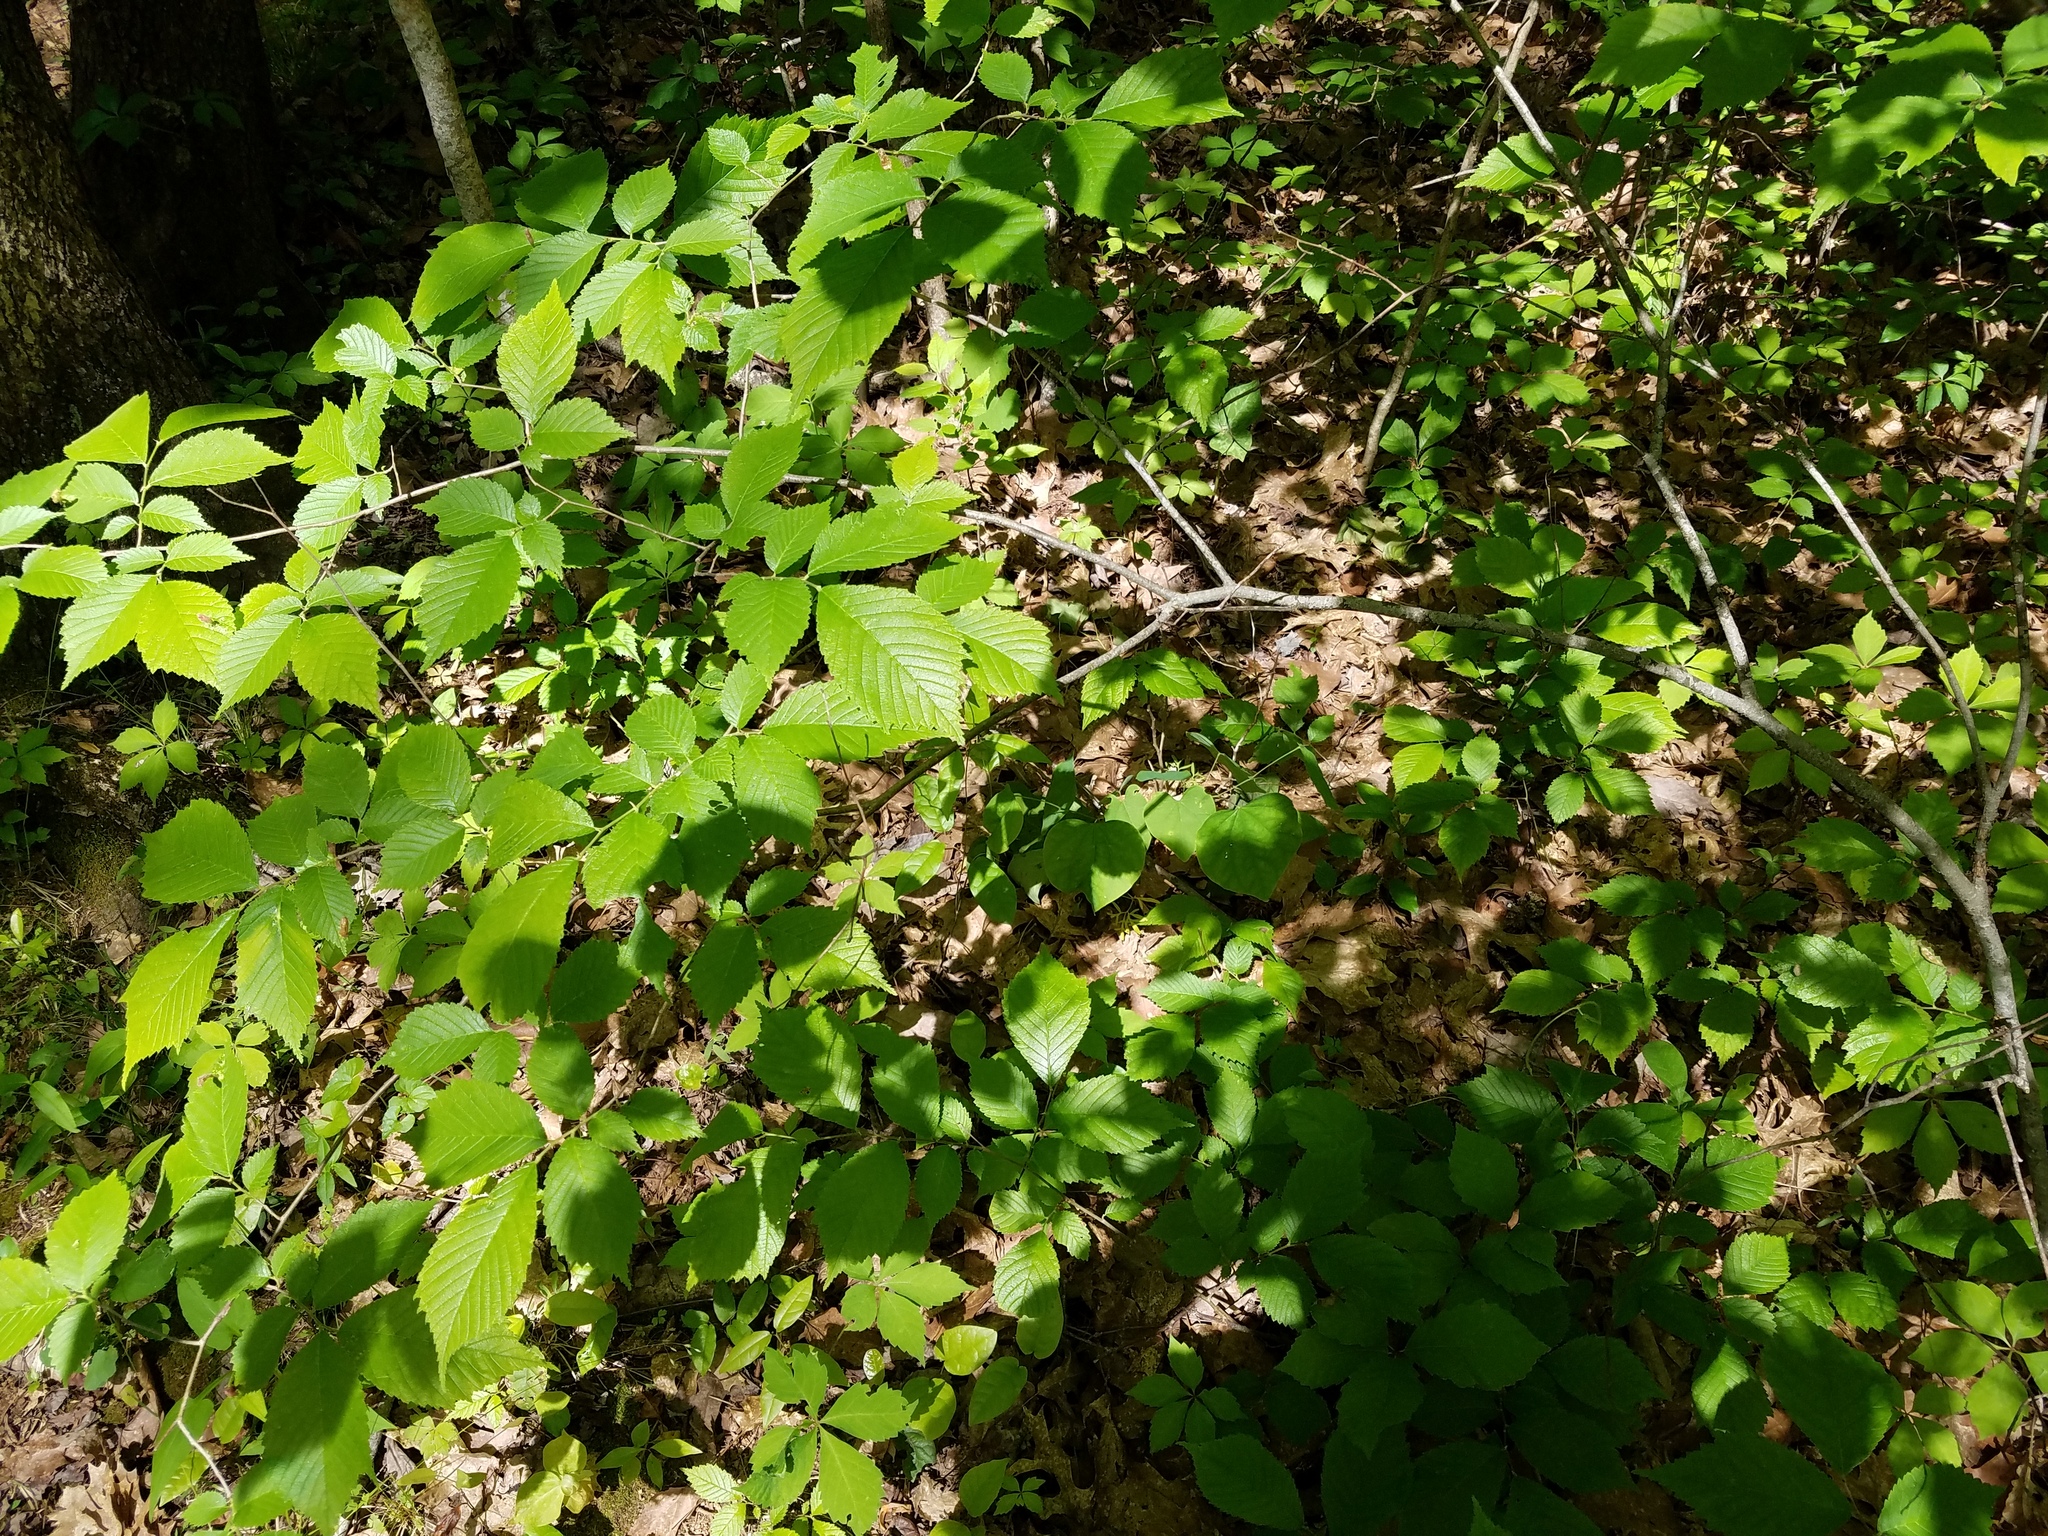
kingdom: Plantae
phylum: Tracheophyta
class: Magnoliopsida
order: Rosales
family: Ulmaceae
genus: Ulmus
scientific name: Ulmus americana
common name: American elm
